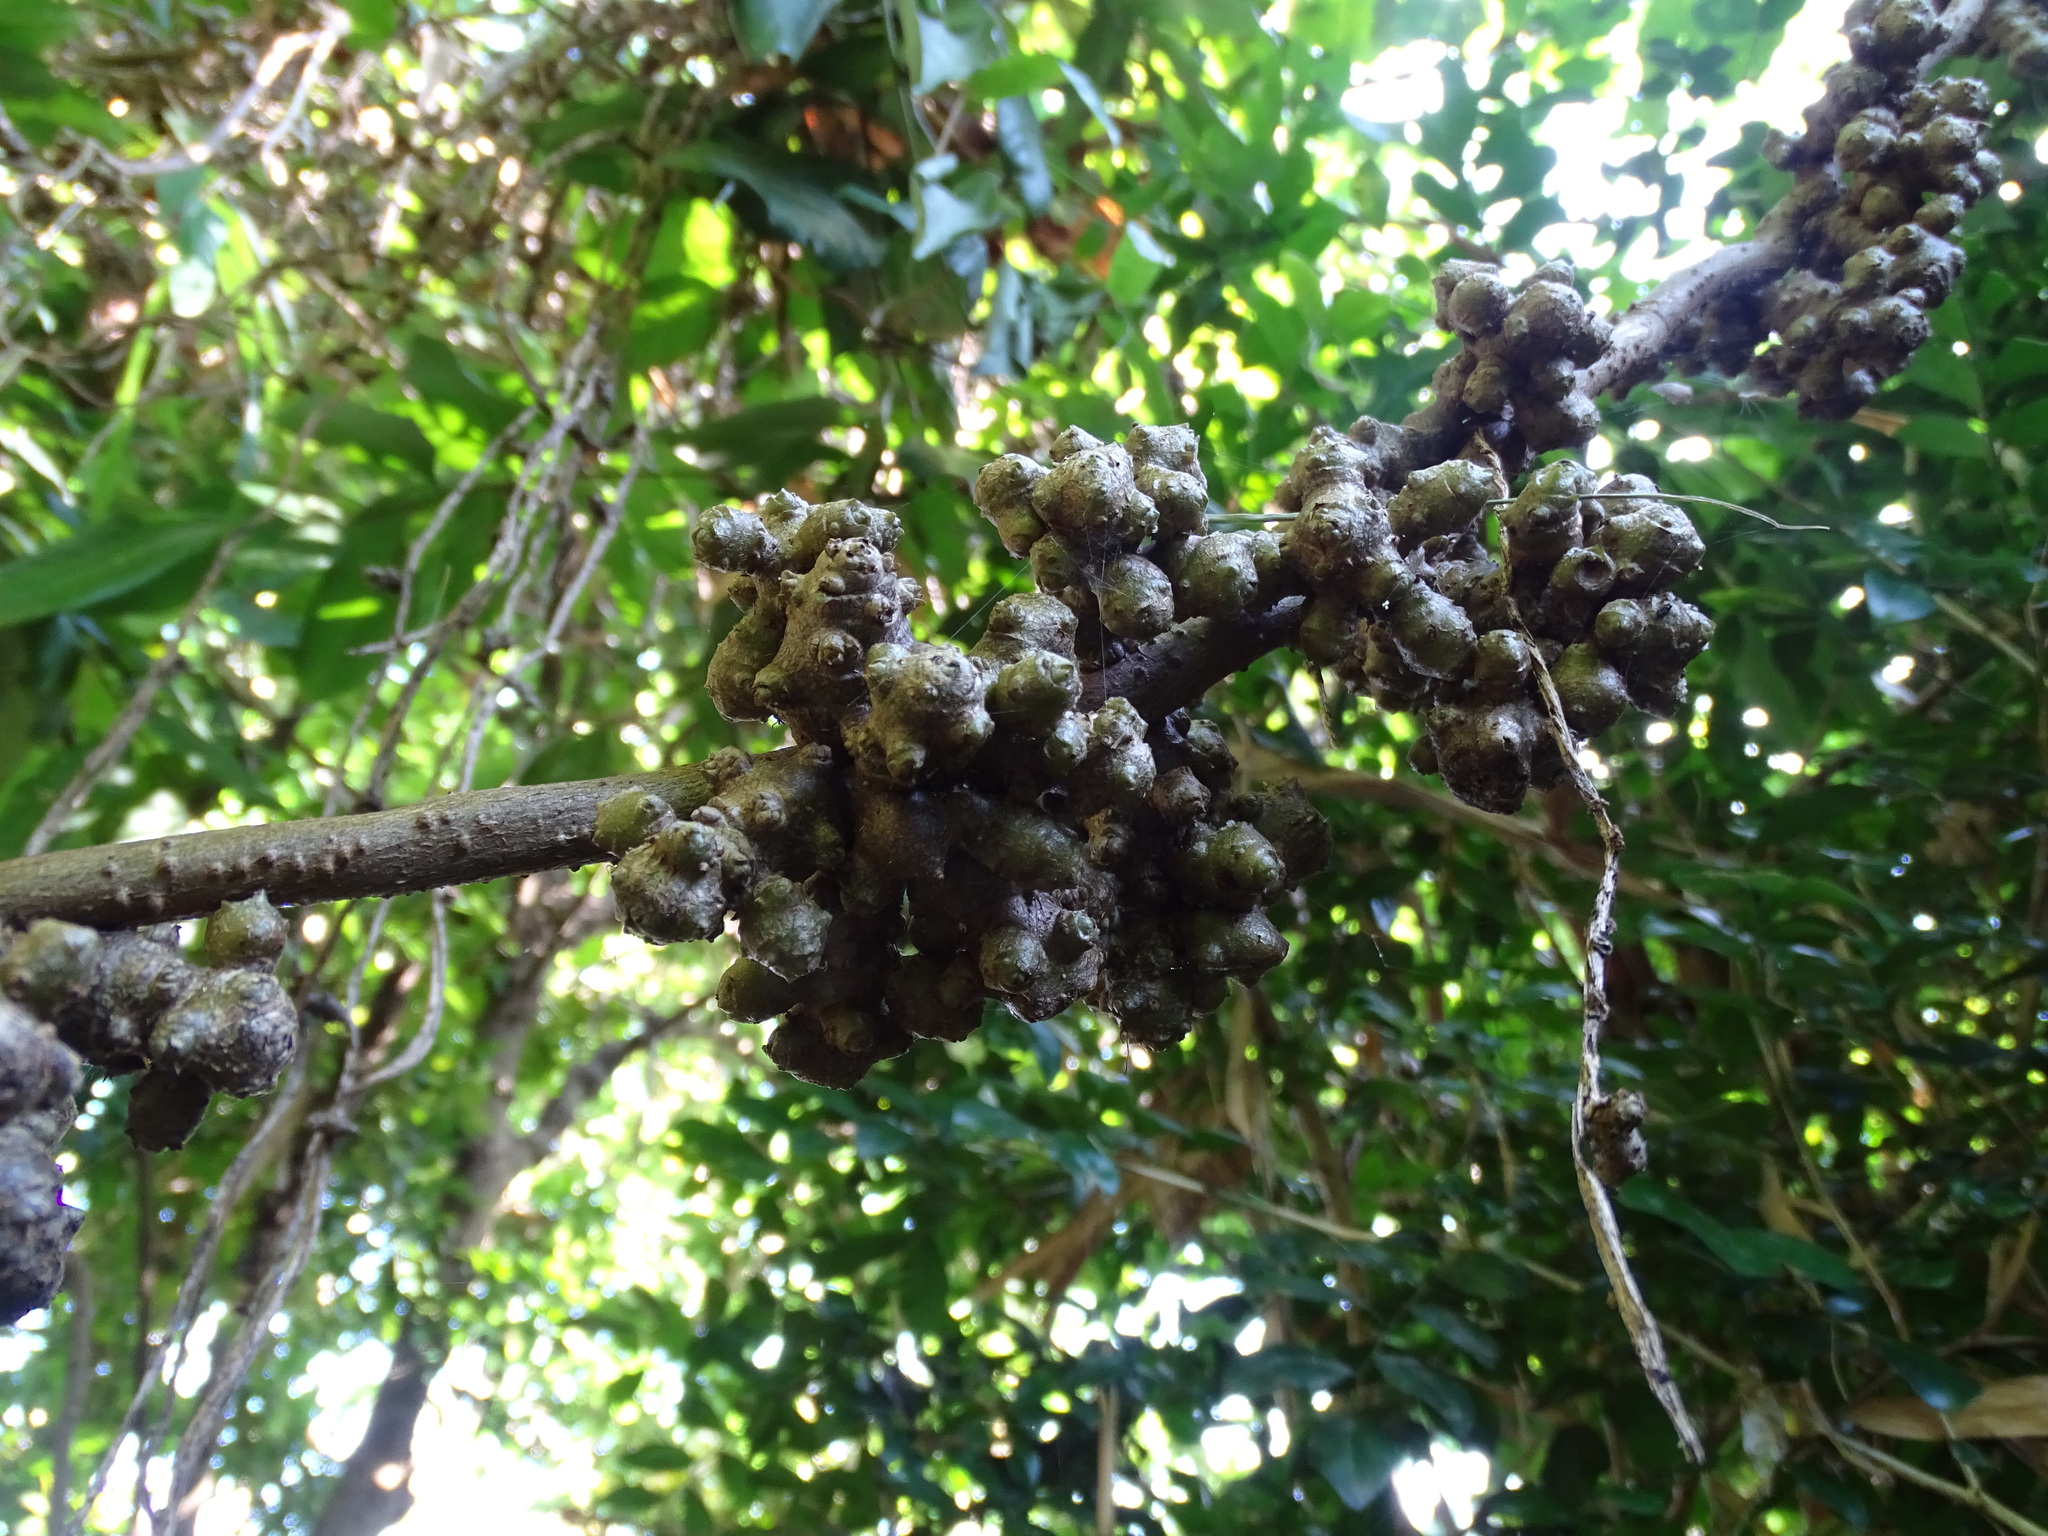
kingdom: Plantae
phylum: Tracheophyta
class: Magnoliopsida
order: Caryophyllales
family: Basellaceae
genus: Anredera
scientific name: Anredera cordifolia
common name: Heartleaf madeiravine
